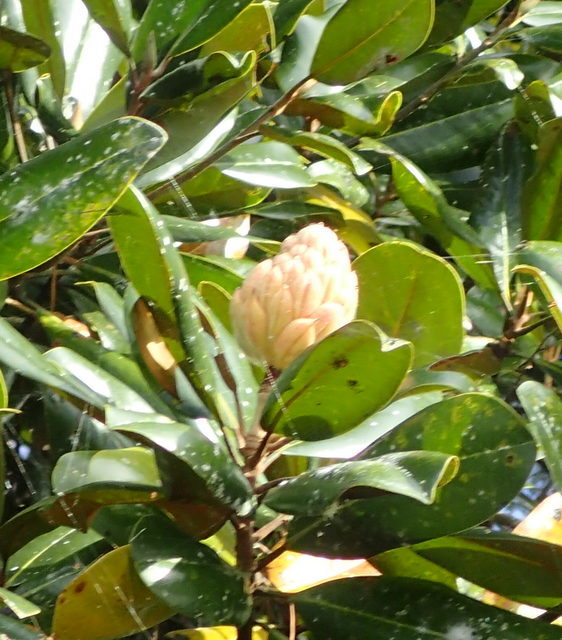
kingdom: Plantae
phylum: Tracheophyta
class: Magnoliopsida
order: Magnoliales
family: Magnoliaceae
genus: Magnolia
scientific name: Magnolia grandiflora
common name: Southern magnolia
